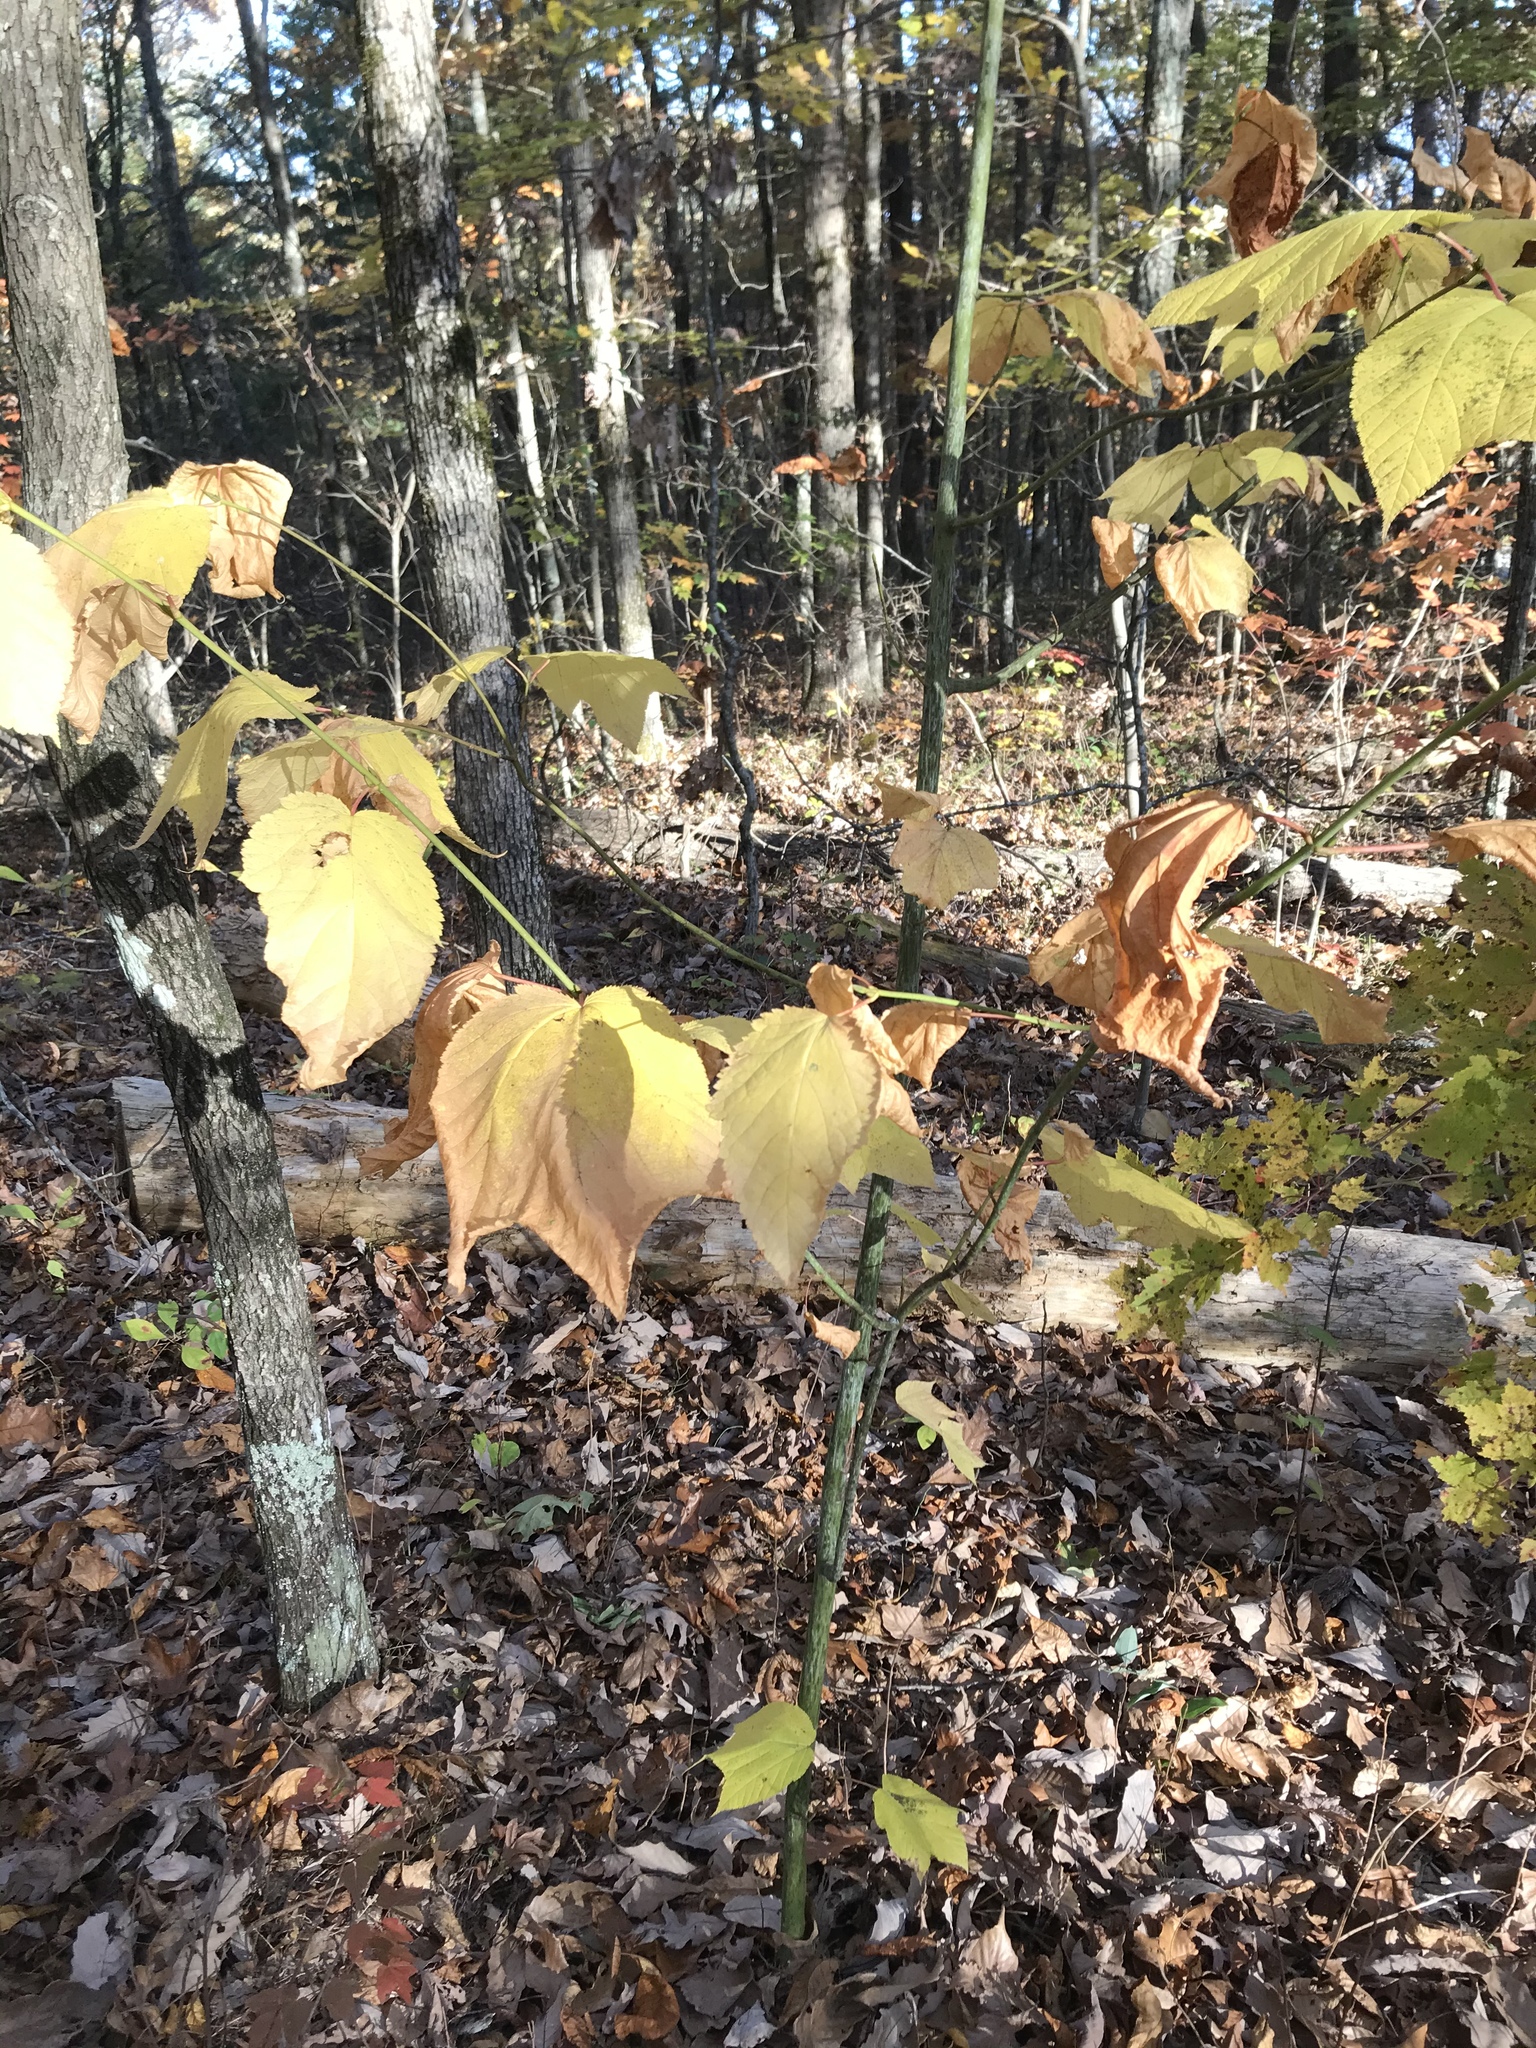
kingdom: Plantae
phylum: Tracheophyta
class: Magnoliopsida
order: Sapindales
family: Sapindaceae
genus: Acer
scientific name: Acer pensylvanicum
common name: Moosewood
